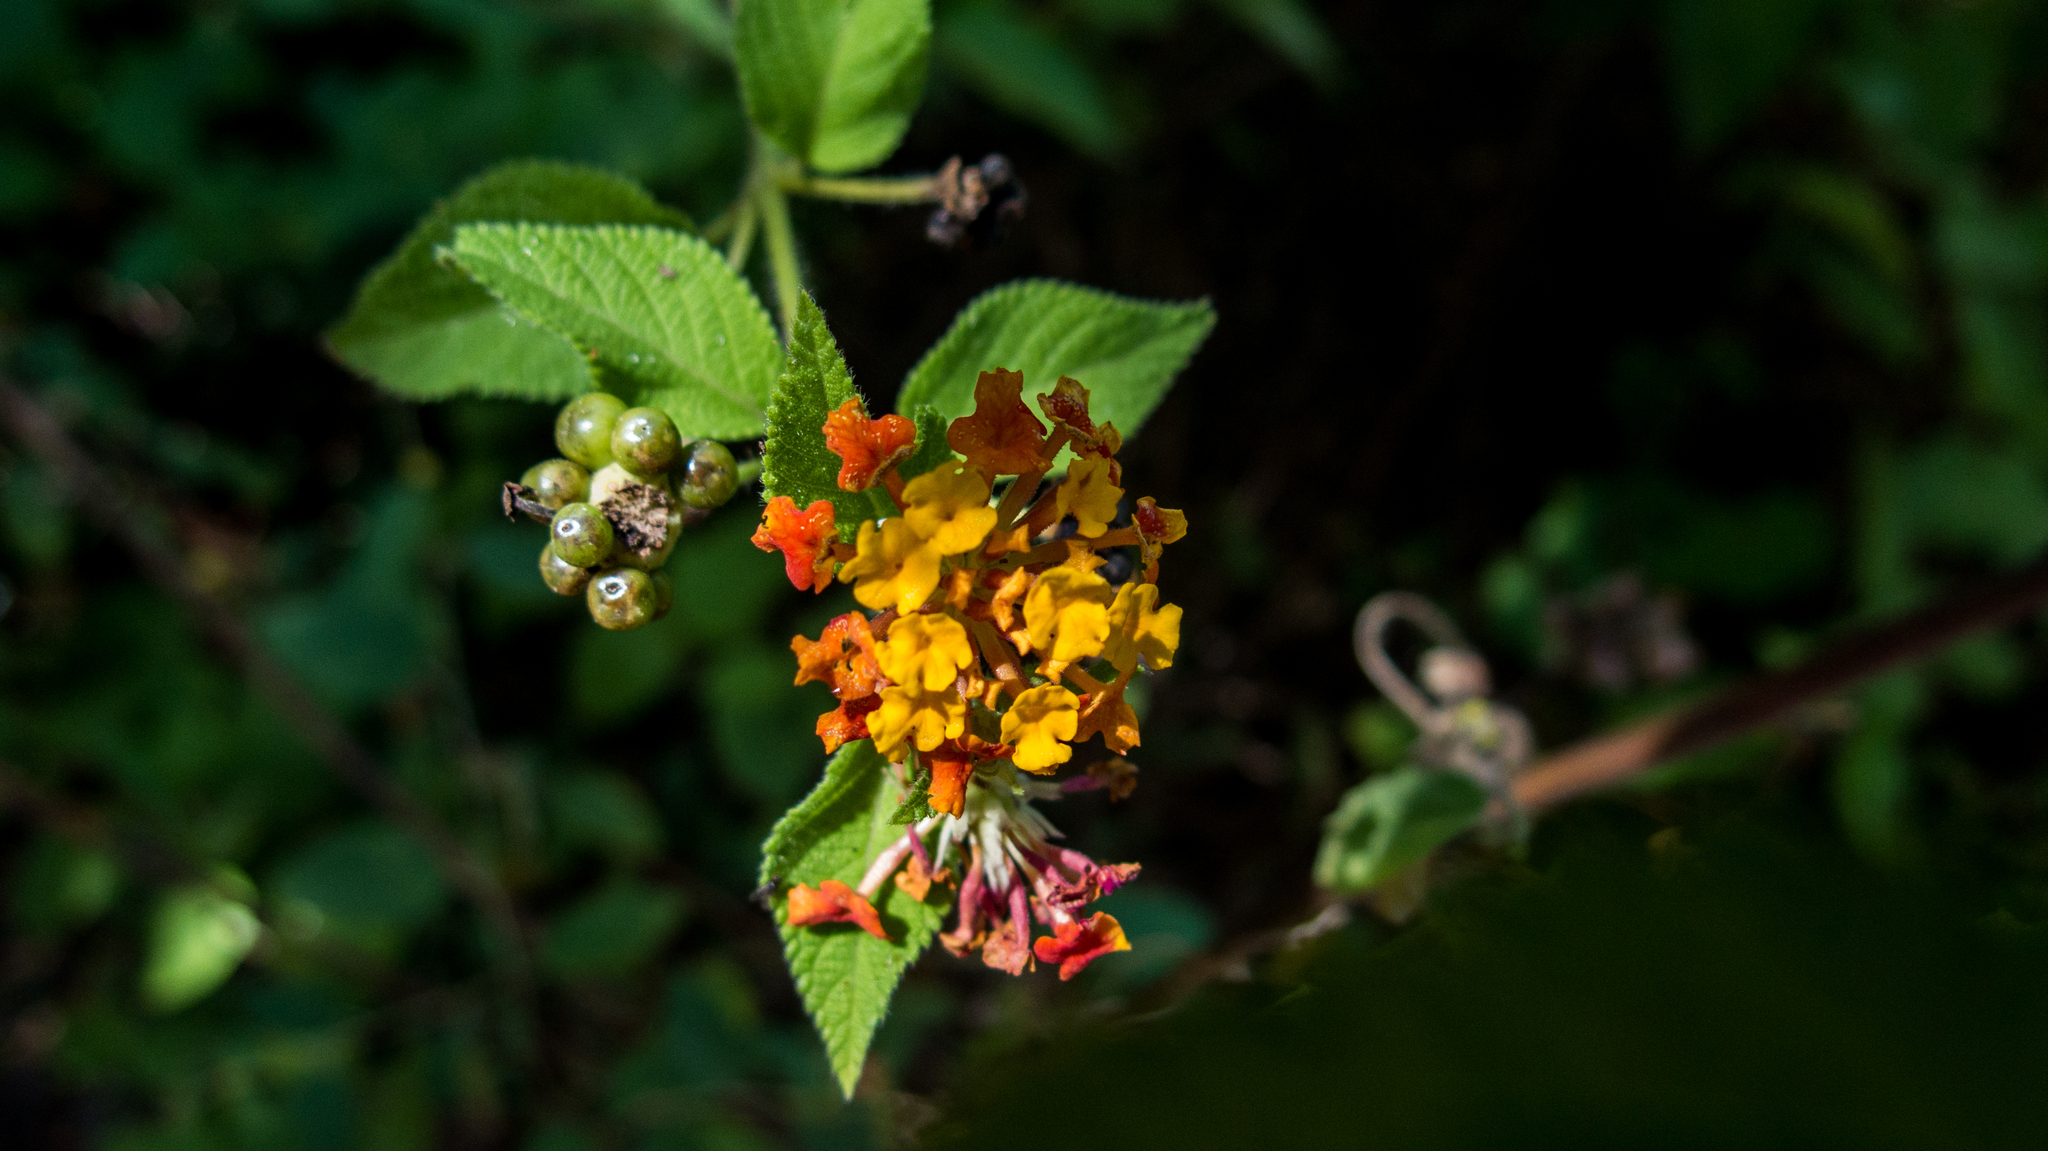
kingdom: Plantae
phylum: Tracheophyta
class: Magnoliopsida
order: Lamiales
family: Verbenaceae
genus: Lantana
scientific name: Lantana hirsuta
